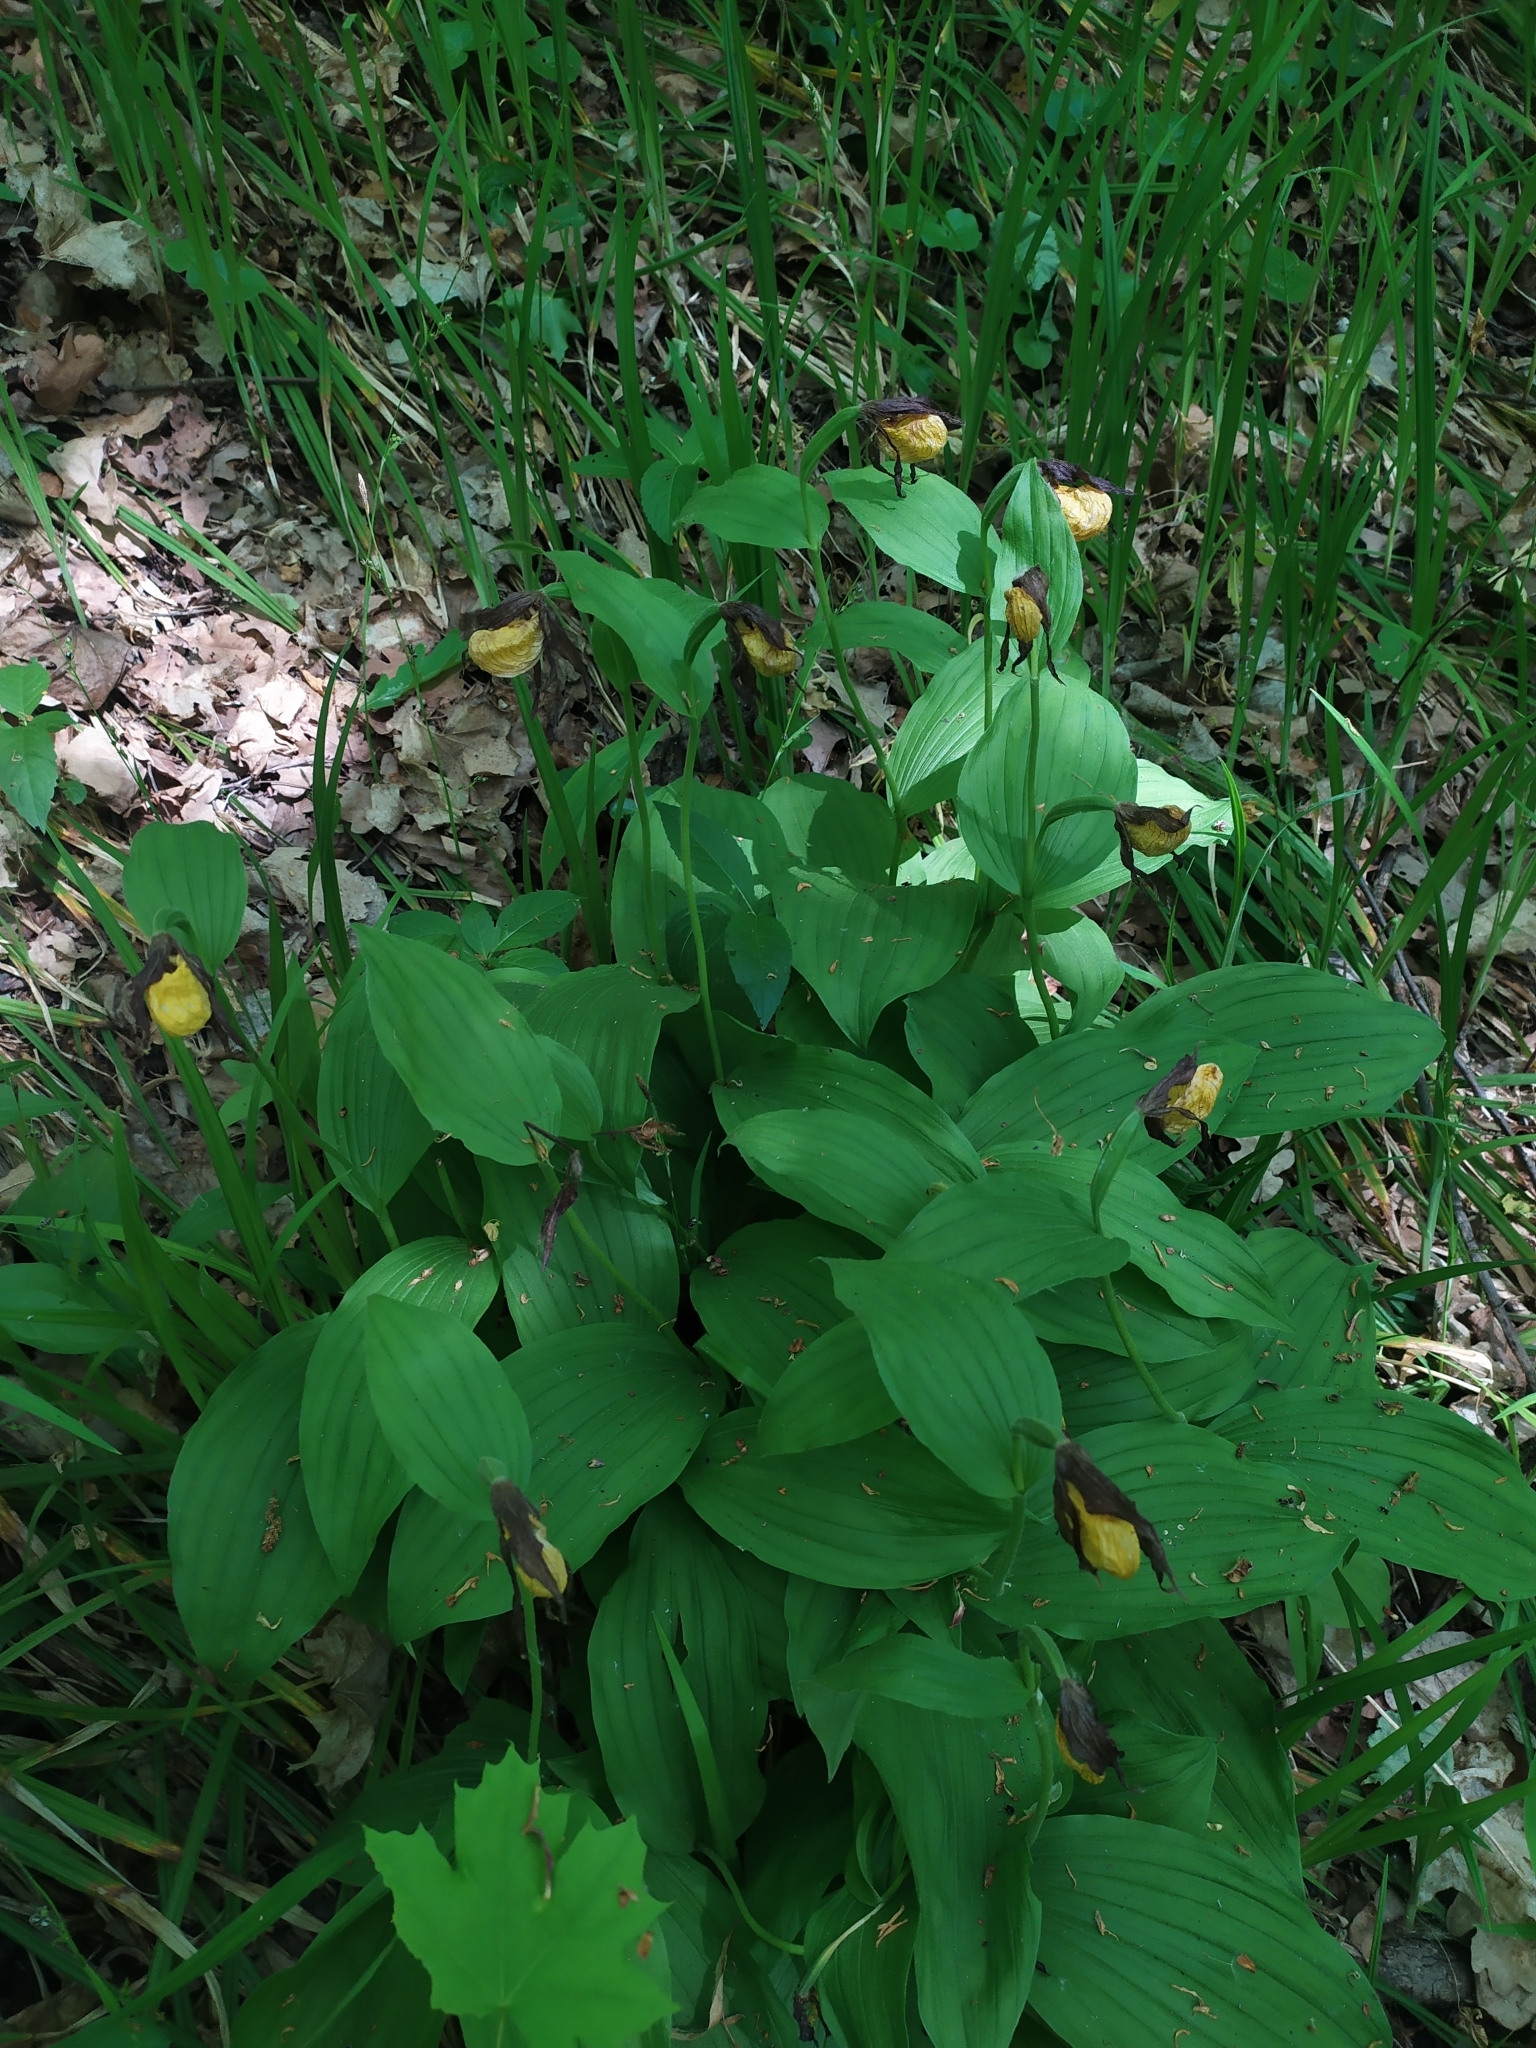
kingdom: Plantae
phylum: Tracheophyta
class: Liliopsida
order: Asparagales
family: Orchidaceae
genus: Cypripedium
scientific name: Cypripedium calceolus
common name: Lady's-slipper
